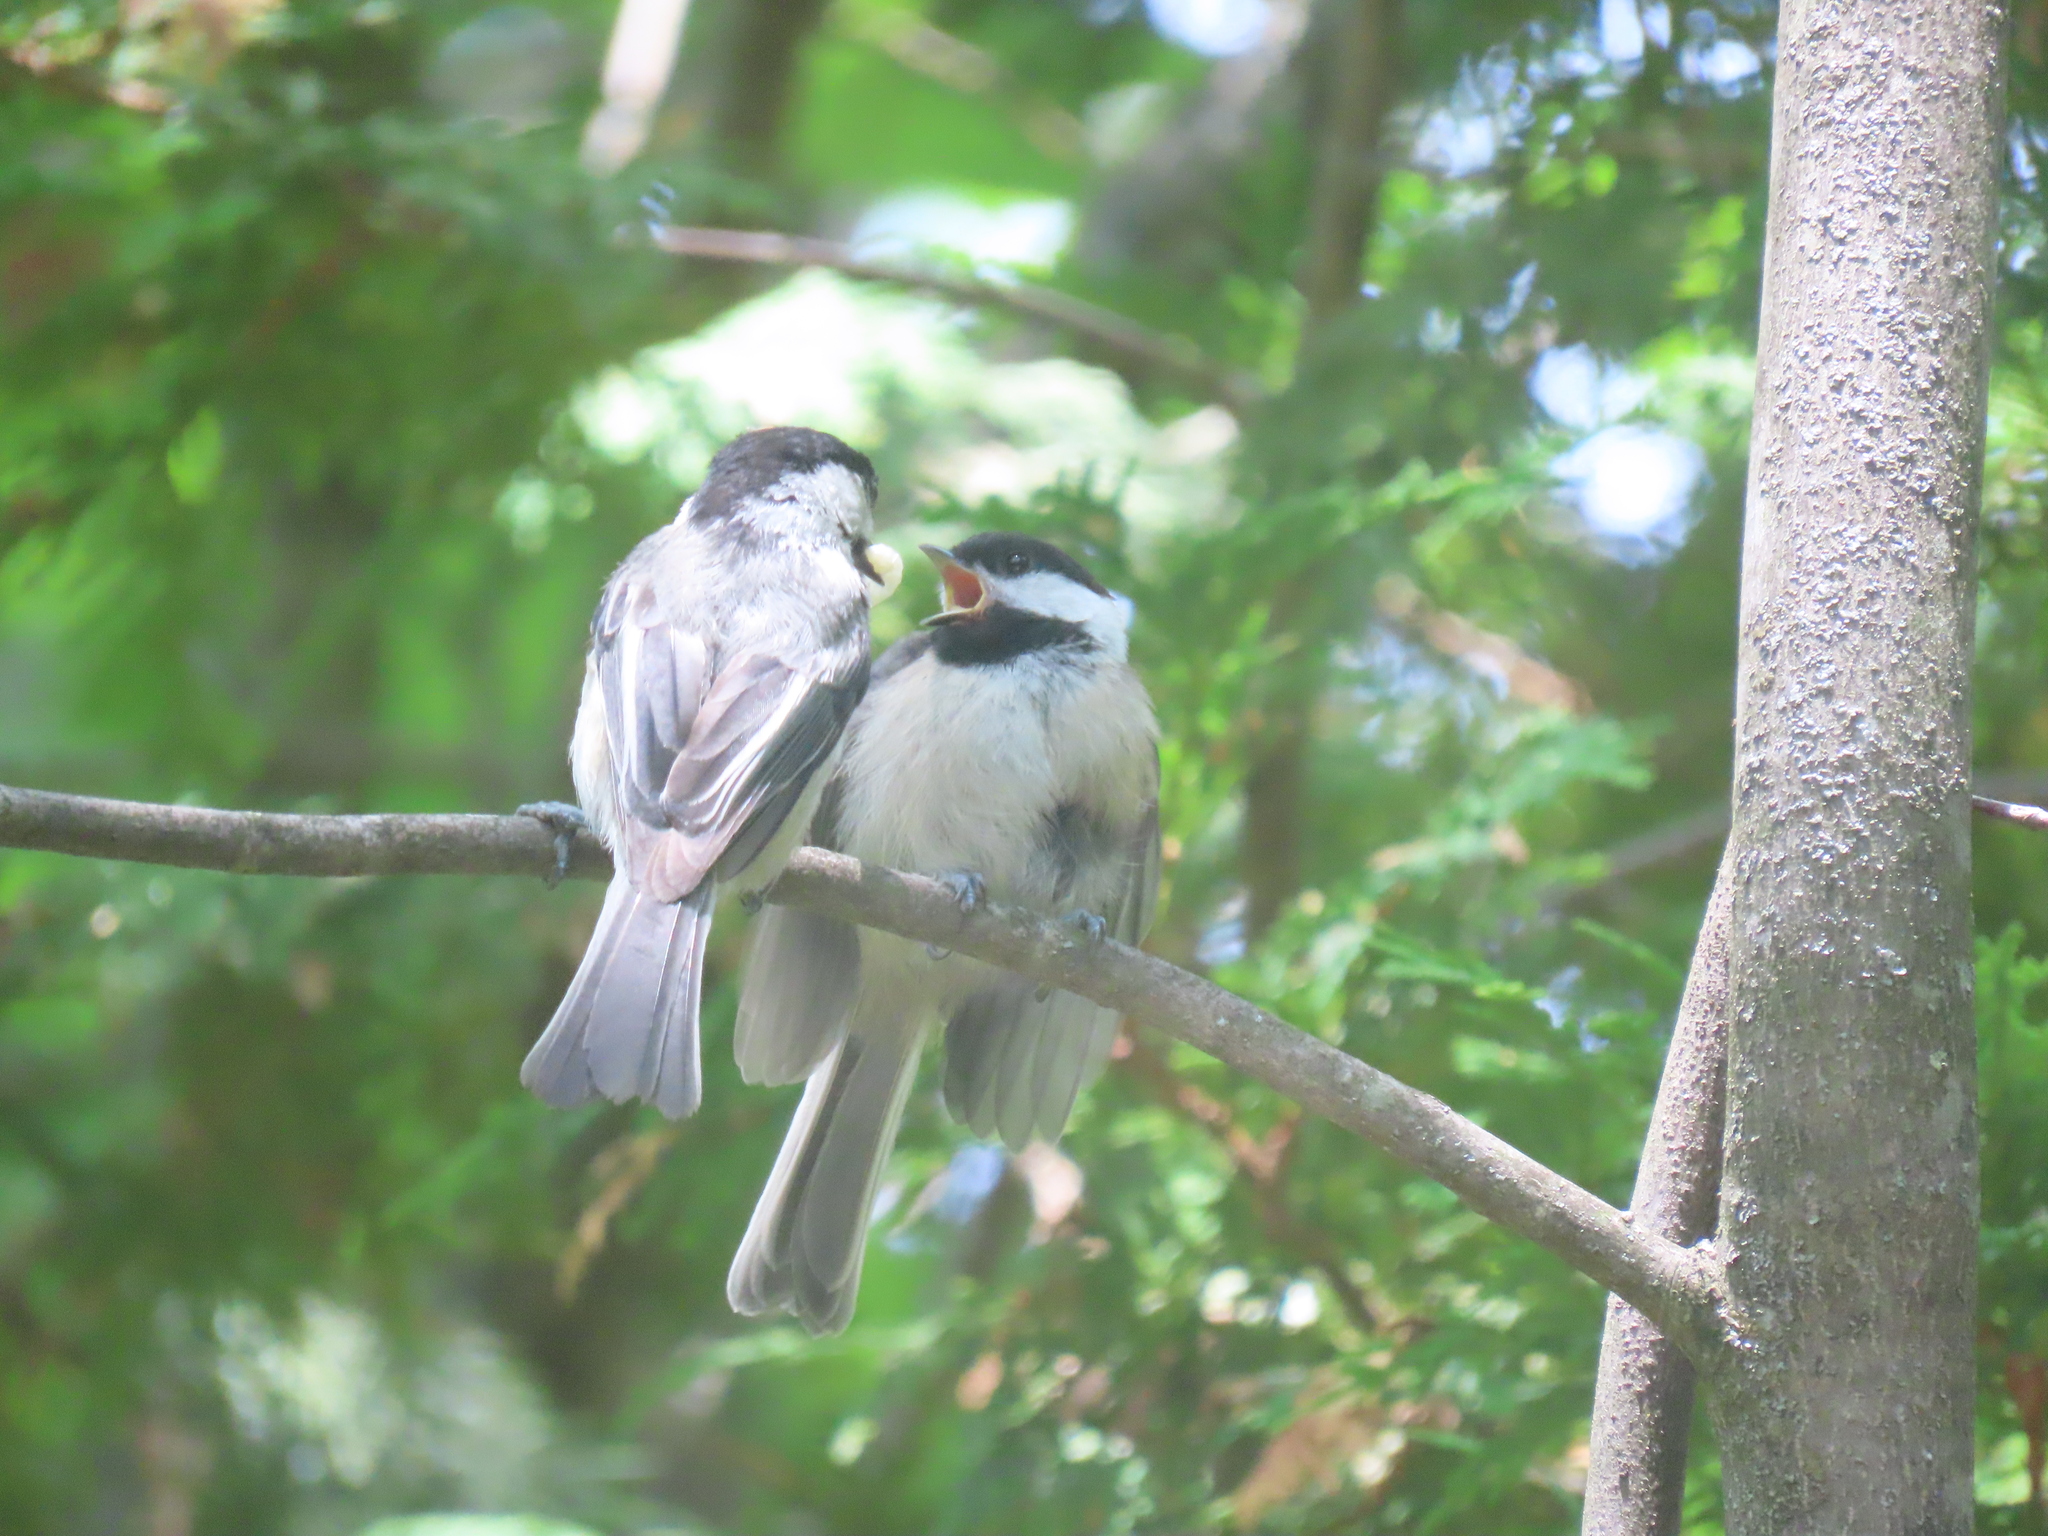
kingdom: Animalia
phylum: Chordata
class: Aves
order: Passeriformes
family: Paridae
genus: Poecile
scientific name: Poecile atricapillus
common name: Black-capped chickadee
